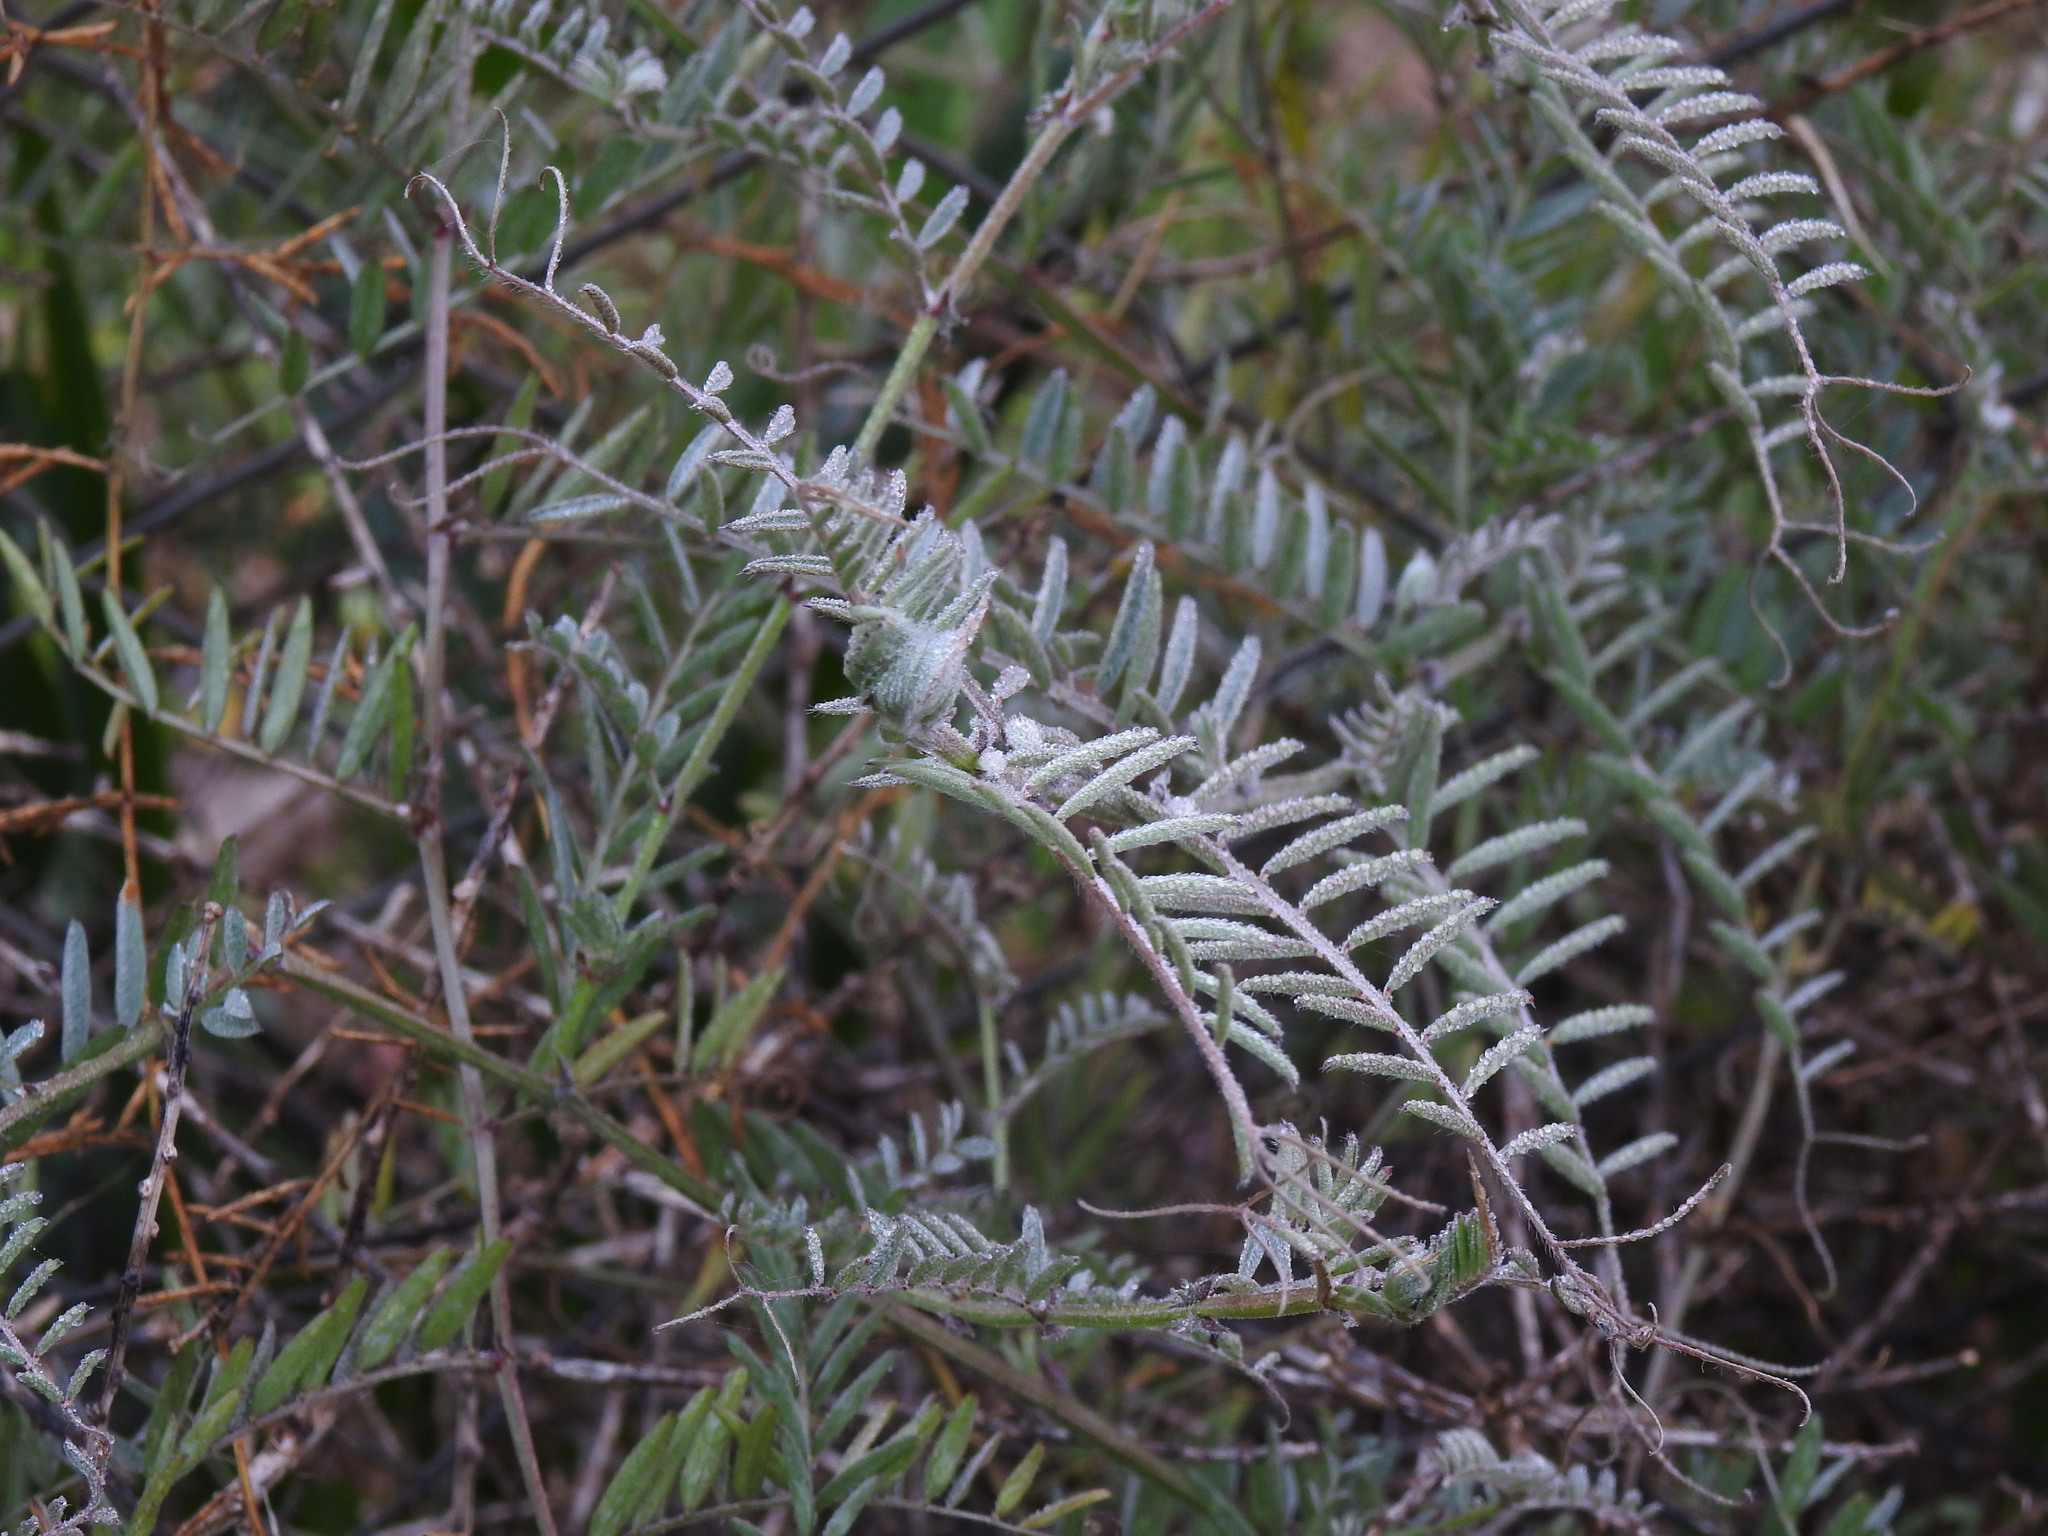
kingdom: Plantae
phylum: Tracheophyta
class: Magnoliopsida
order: Fabales
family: Fabaceae
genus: Vicia
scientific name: Vicia benghalensis
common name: Purple vetch
